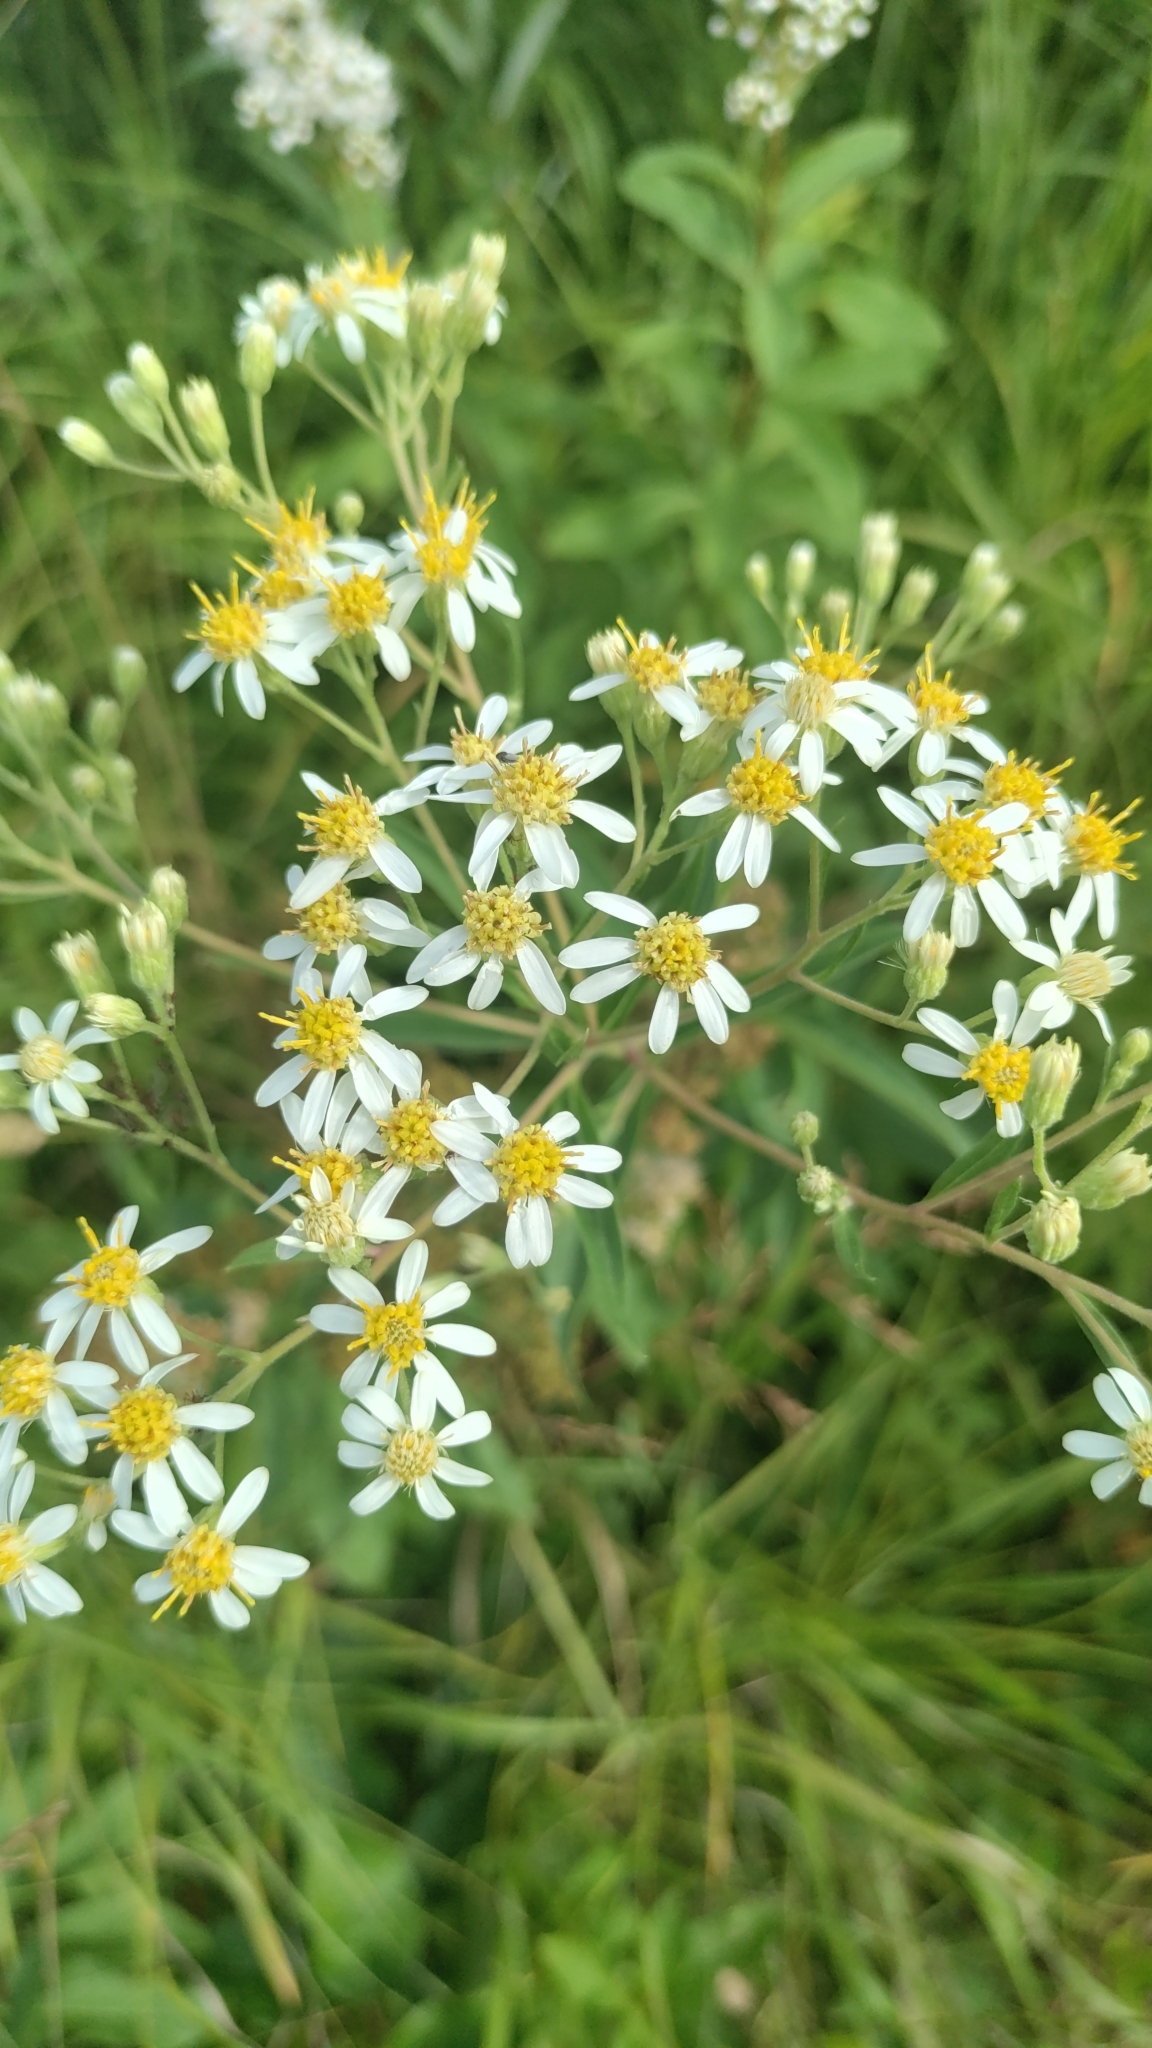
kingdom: Plantae
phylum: Tracheophyta
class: Magnoliopsida
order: Asterales
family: Asteraceae
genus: Doellingeria
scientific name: Doellingeria umbellata
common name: Flat-top white aster
